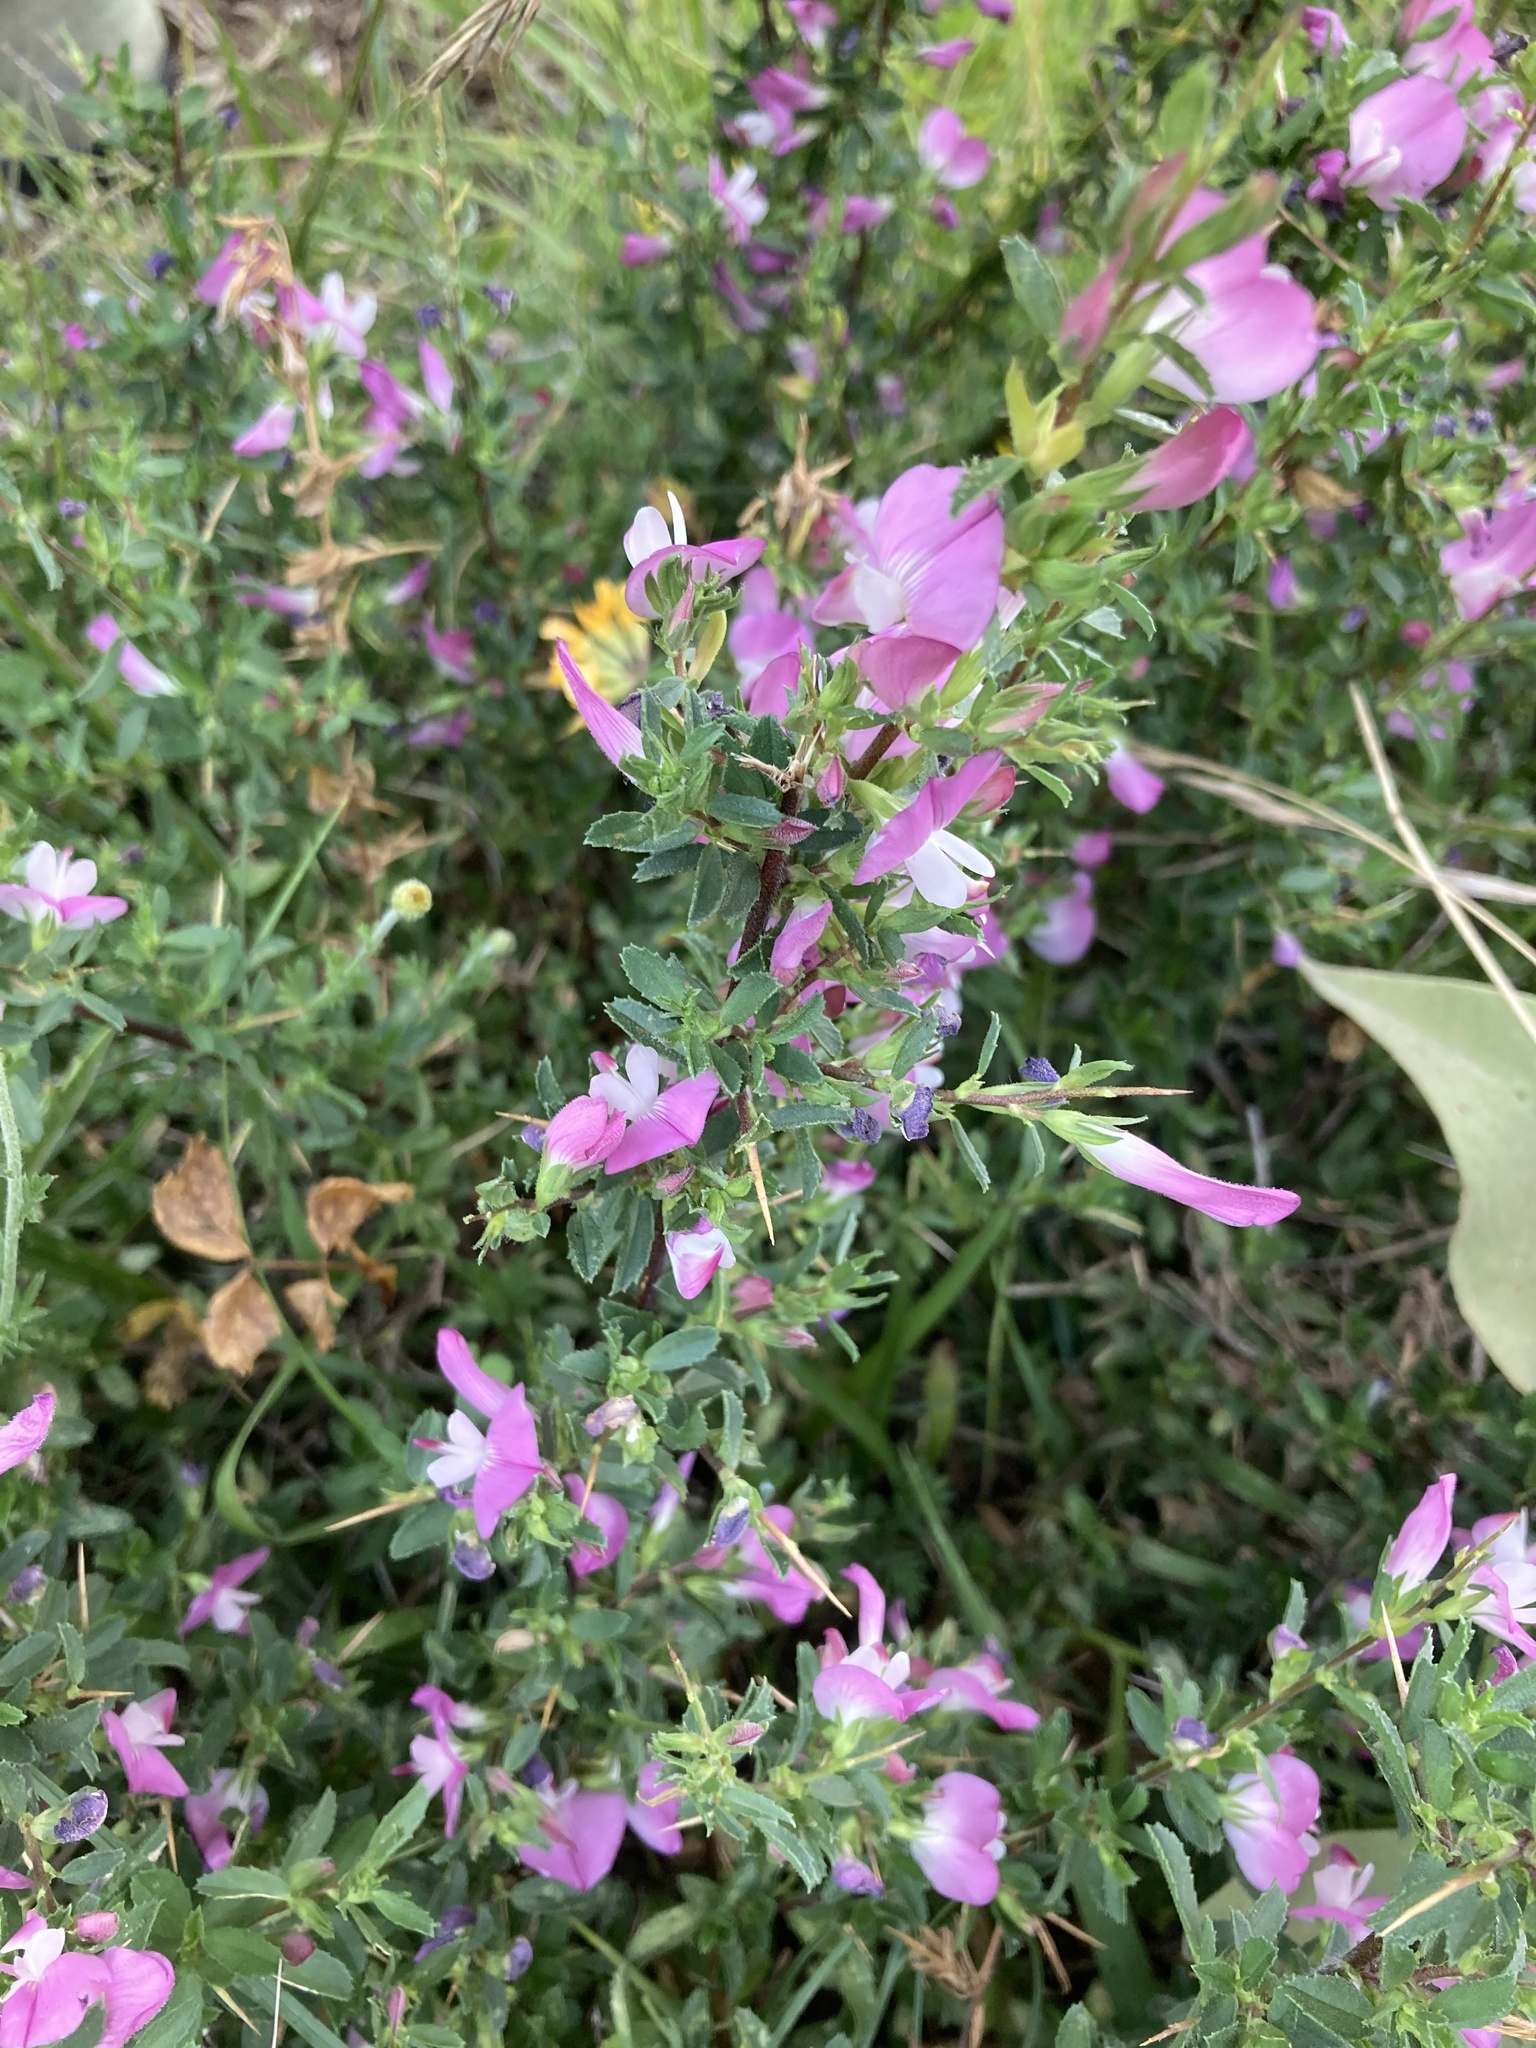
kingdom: Plantae
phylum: Tracheophyta
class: Magnoliopsida
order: Fabales
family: Fabaceae
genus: Ononis
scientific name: Ononis spinosa
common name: Spiny restharrow
